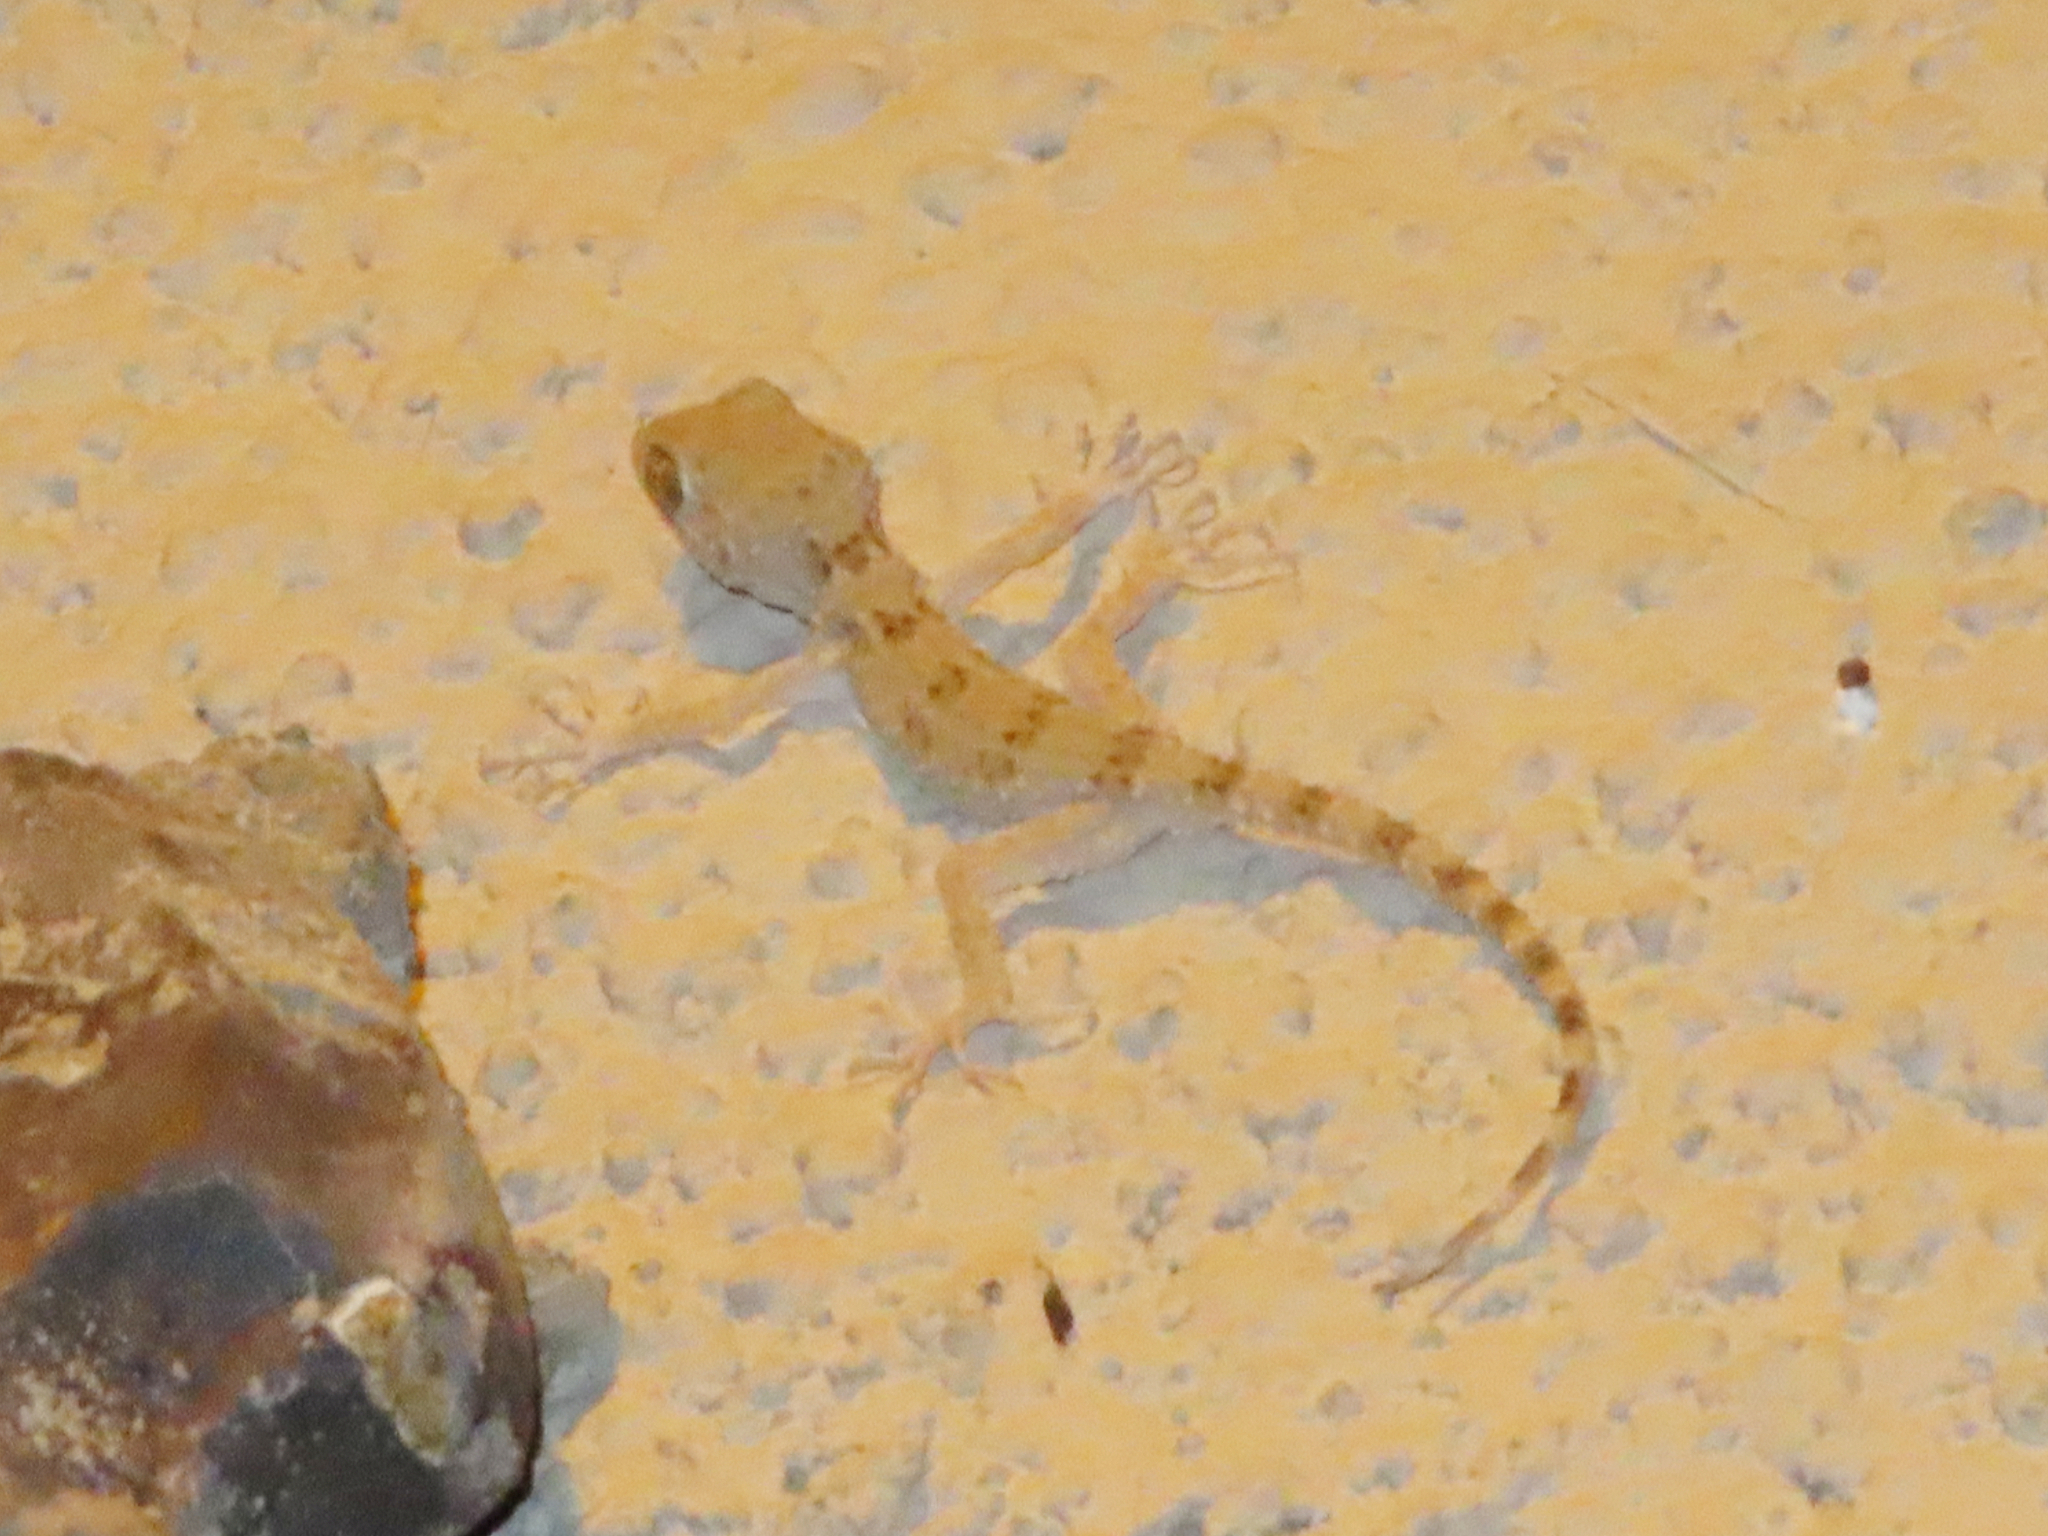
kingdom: Animalia
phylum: Chordata
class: Squamata
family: Gekkonidae
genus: Tenuidactylus
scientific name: Tenuidactylus caspius
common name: Caspian bent-toed gecko
